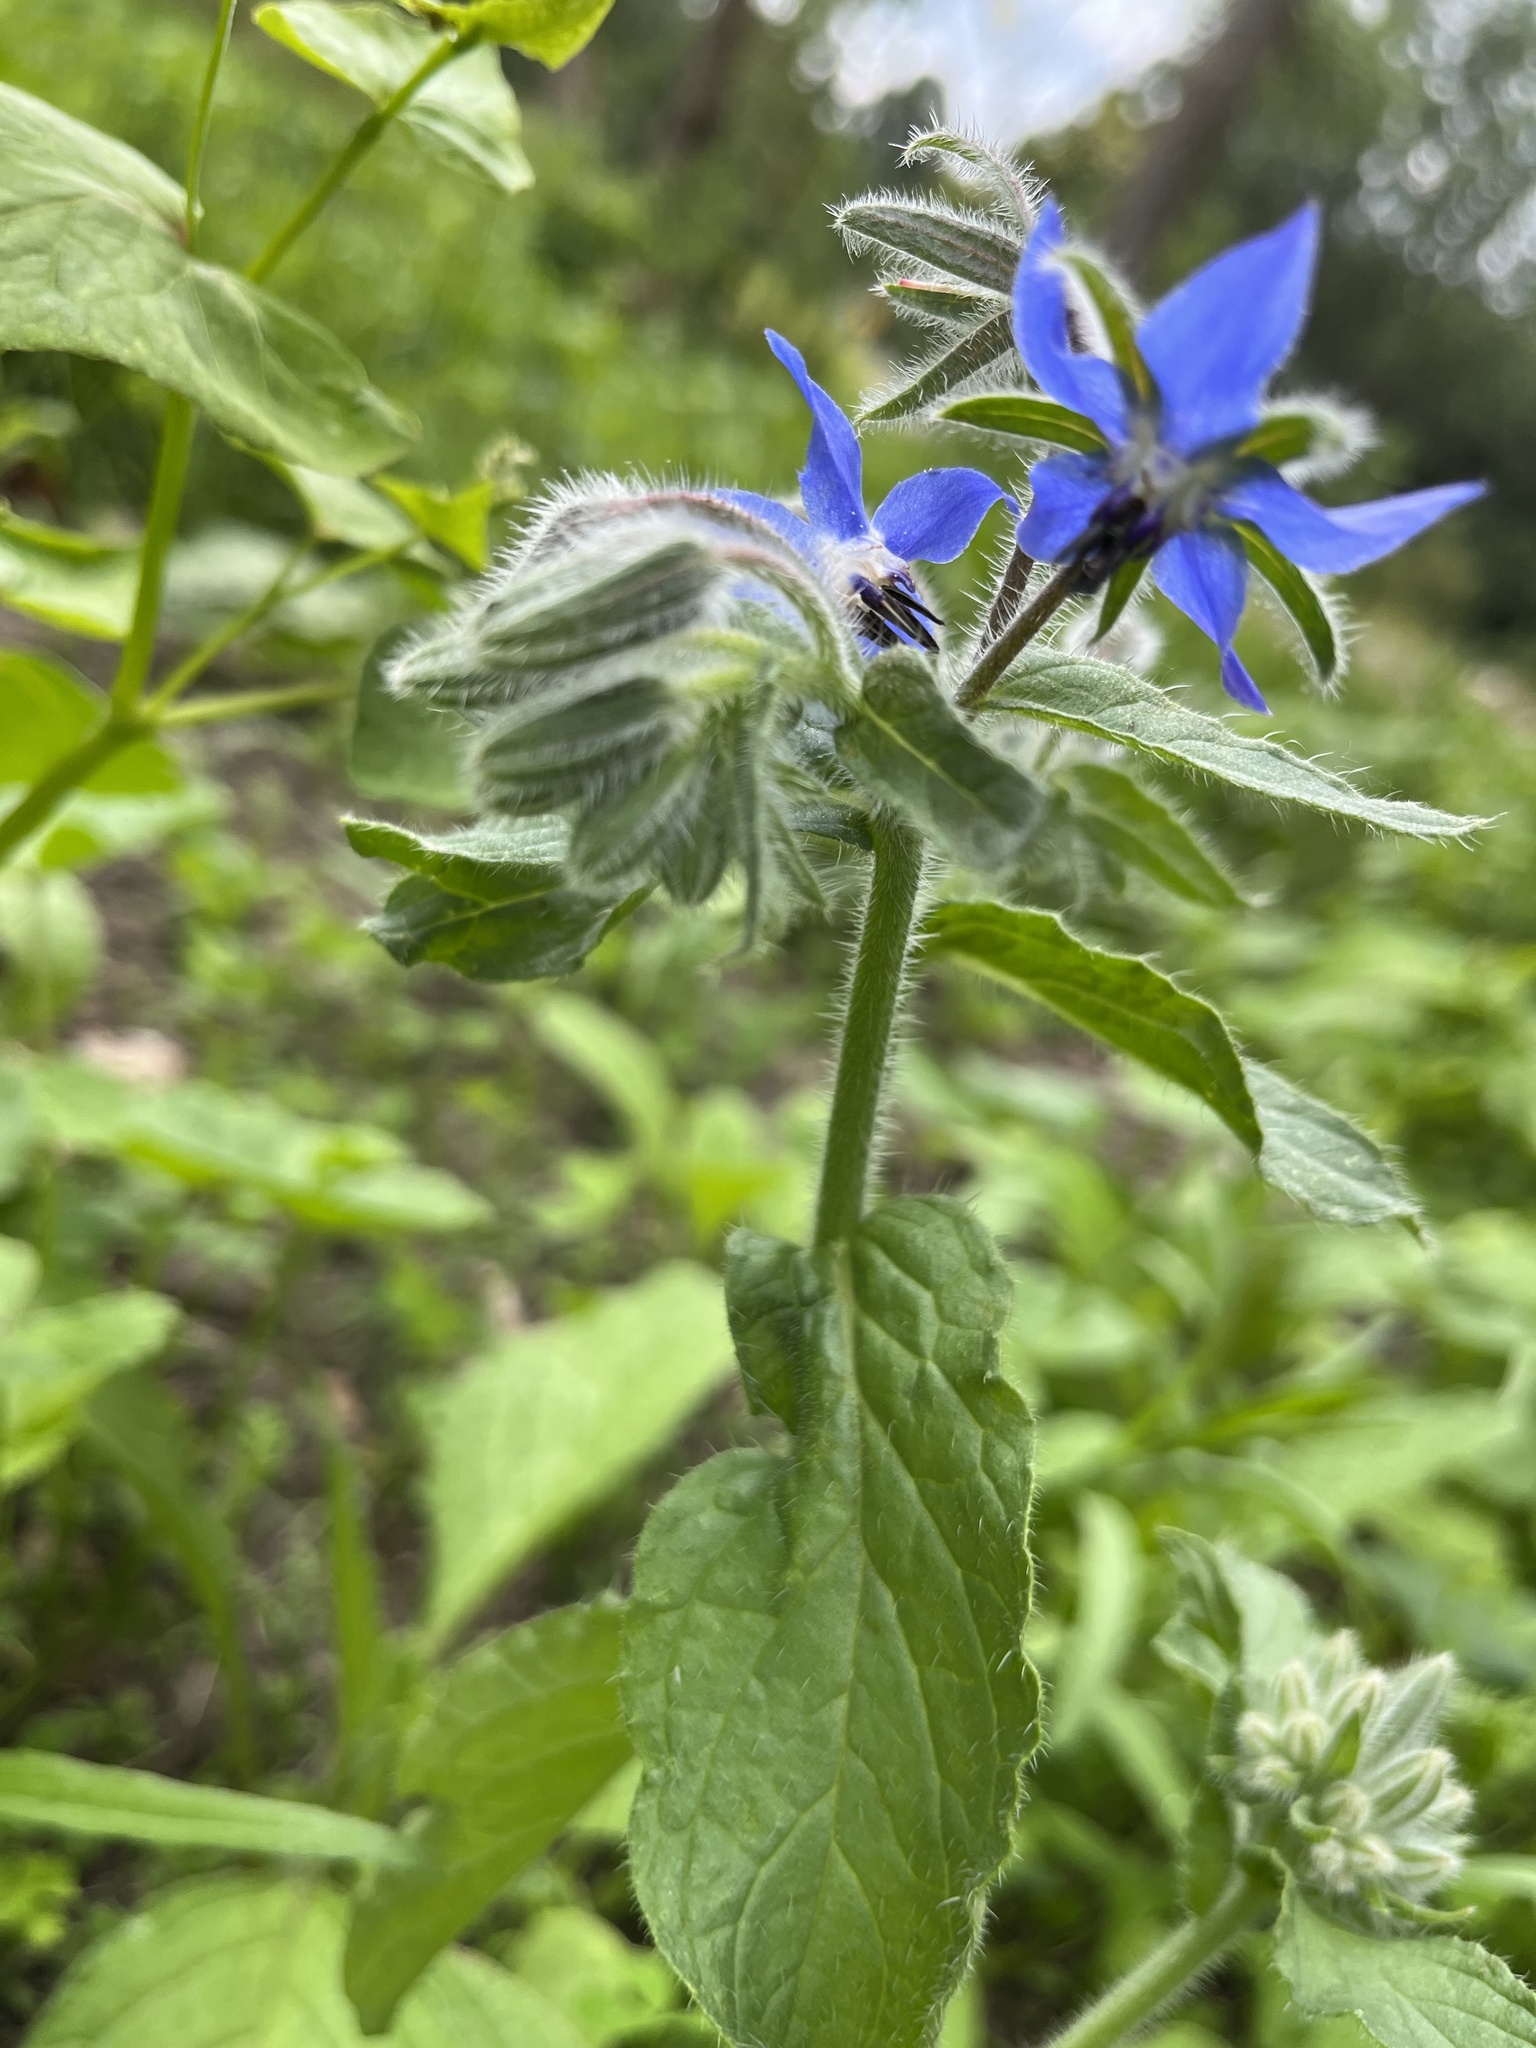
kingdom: Plantae
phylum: Tracheophyta
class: Magnoliopsida
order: Boraginales
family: Boraginaceae
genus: Borago
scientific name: Borago officinalis
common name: Borage
